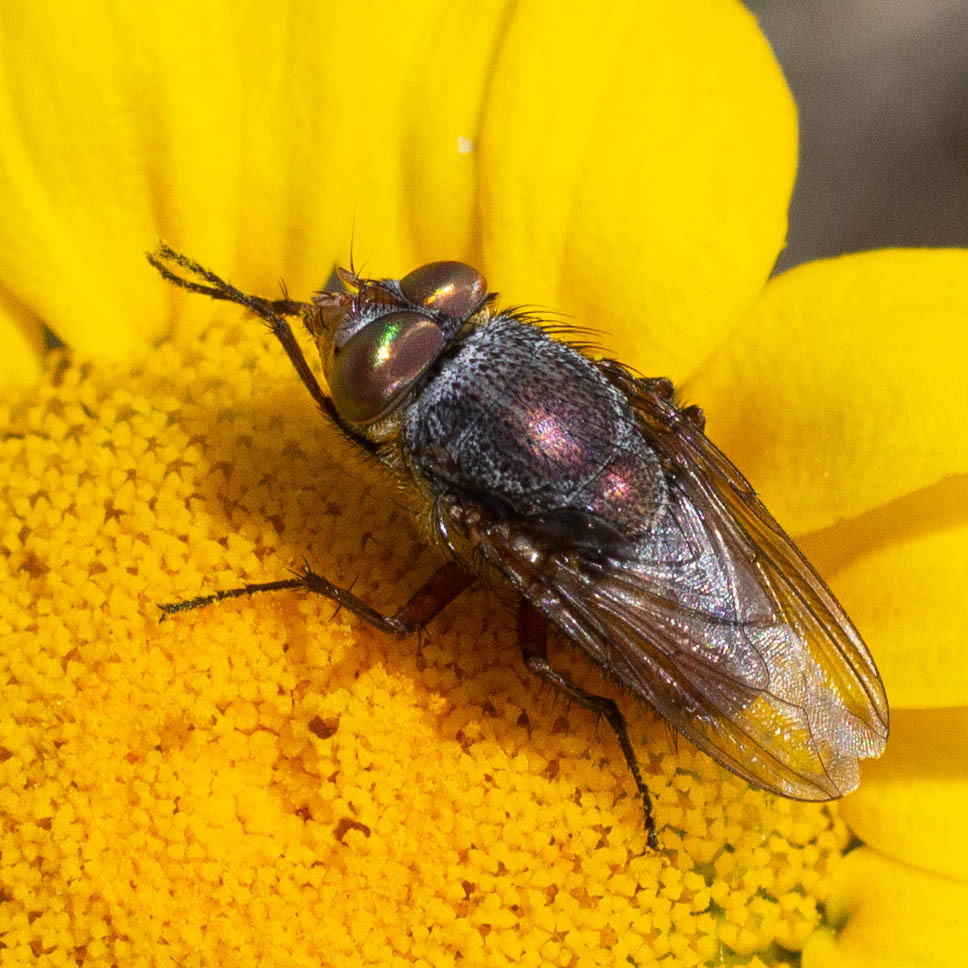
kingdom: Animalia
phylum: Arthropoda
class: Insecta
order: Diptera
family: Calliphoridae
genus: Rhyncomya
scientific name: Rhyncomya columbina
